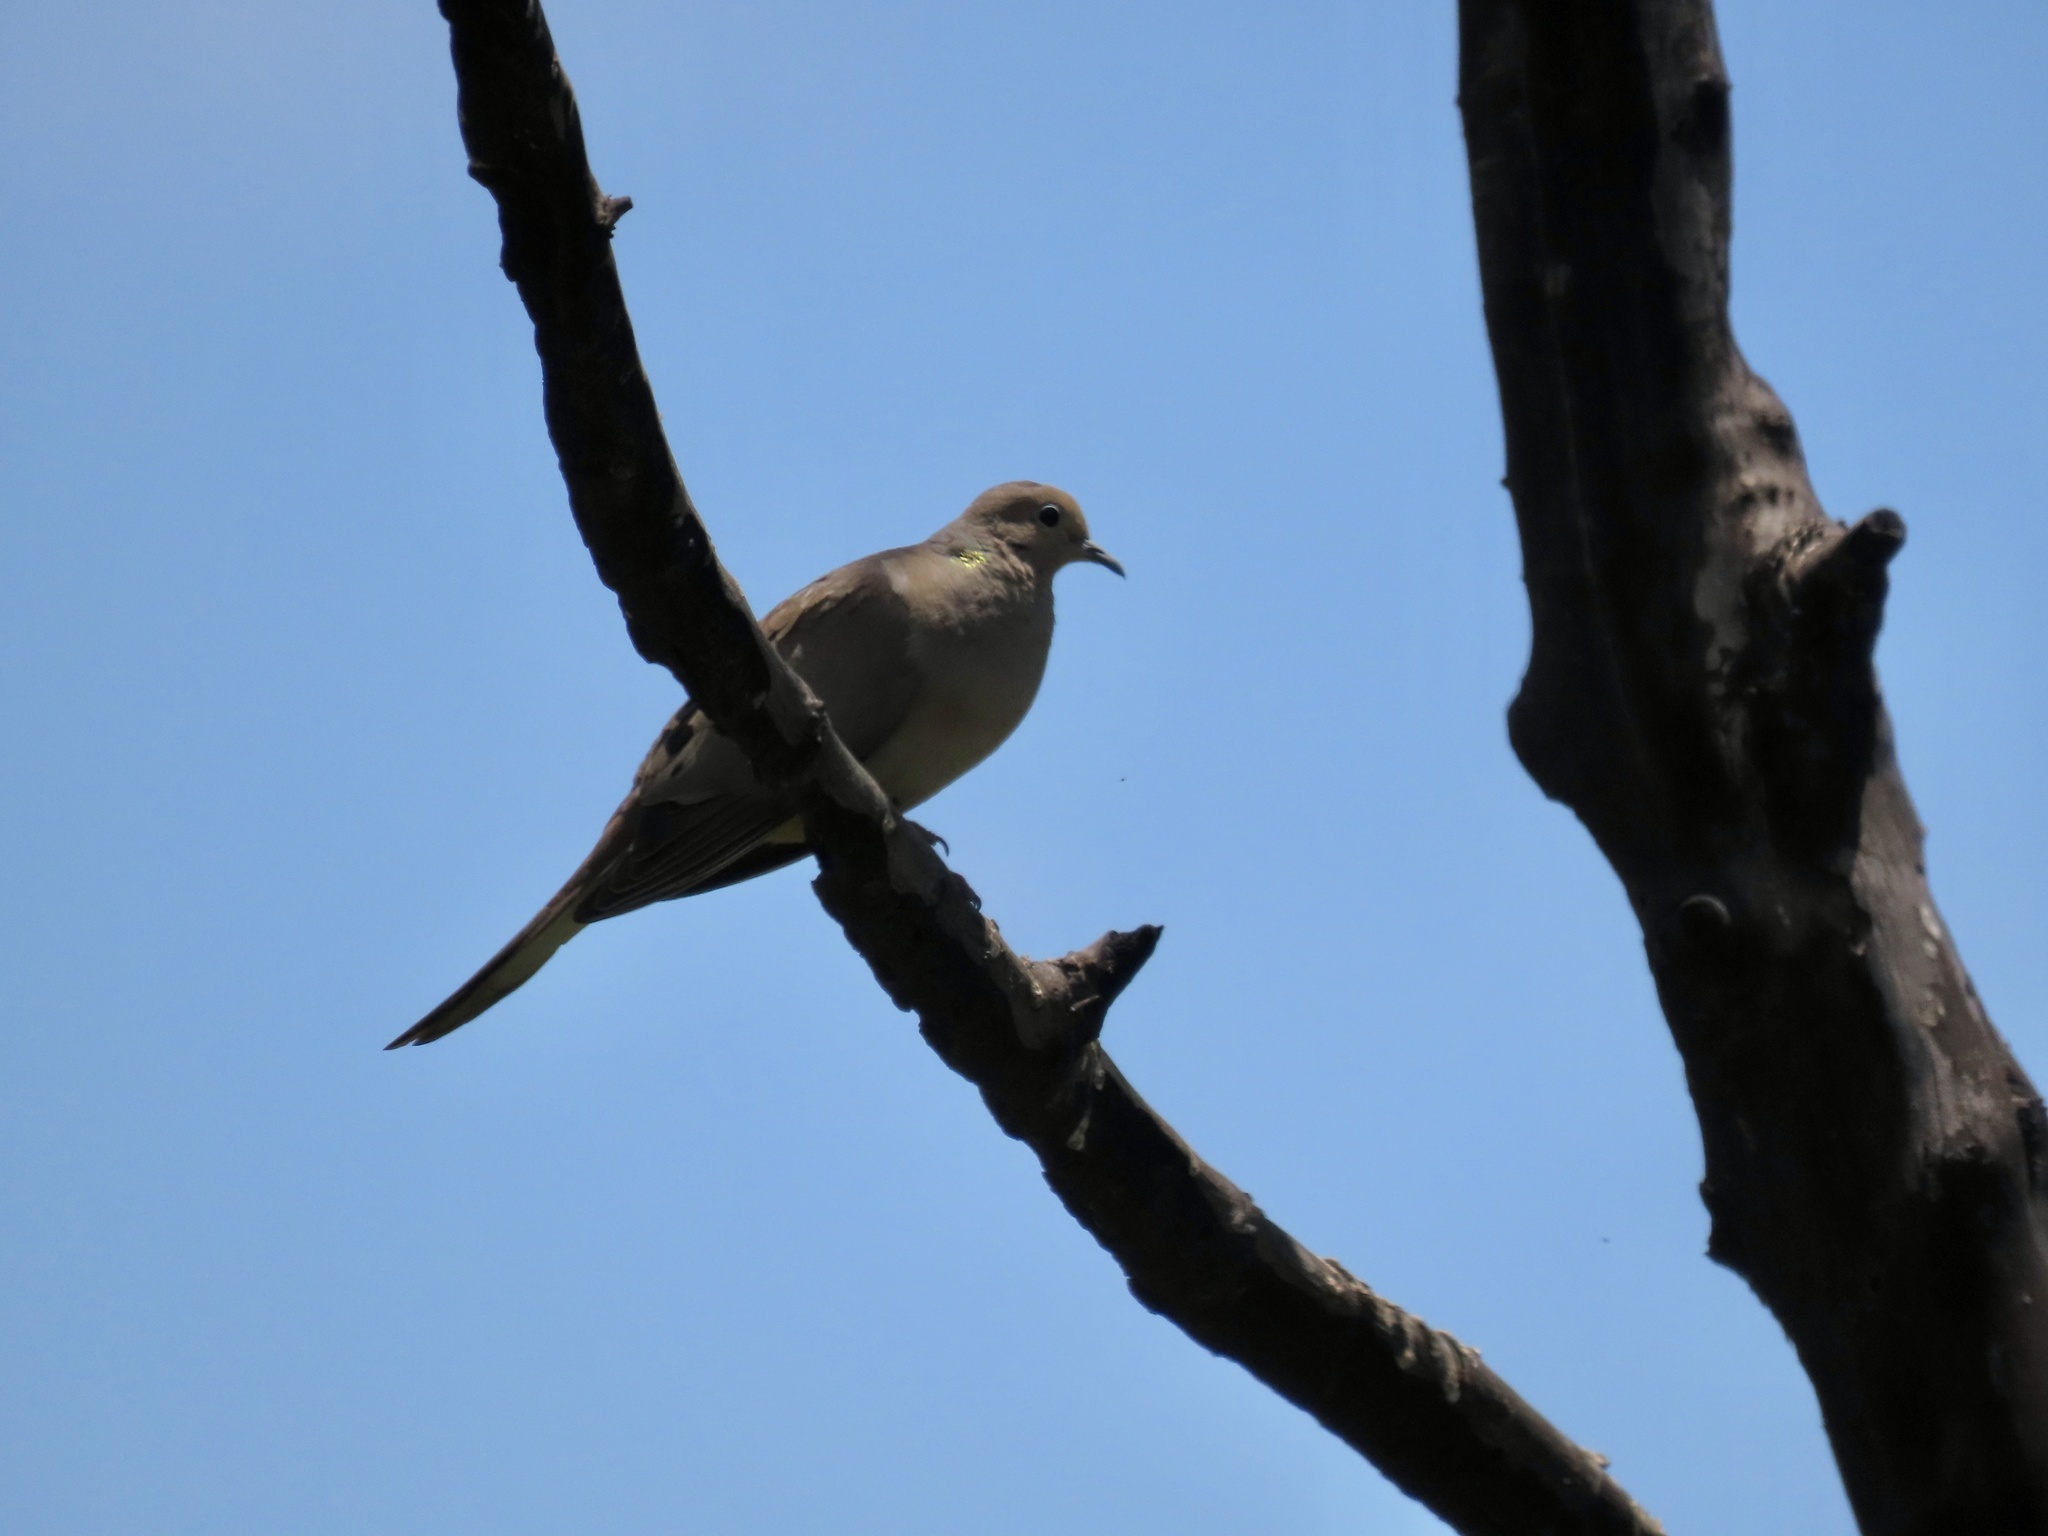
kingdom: Animalia
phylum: Chordata
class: Aves
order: Columbiformes
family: Columbidae
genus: Zenaida
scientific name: Zenaida macroura
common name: Mourning dove
